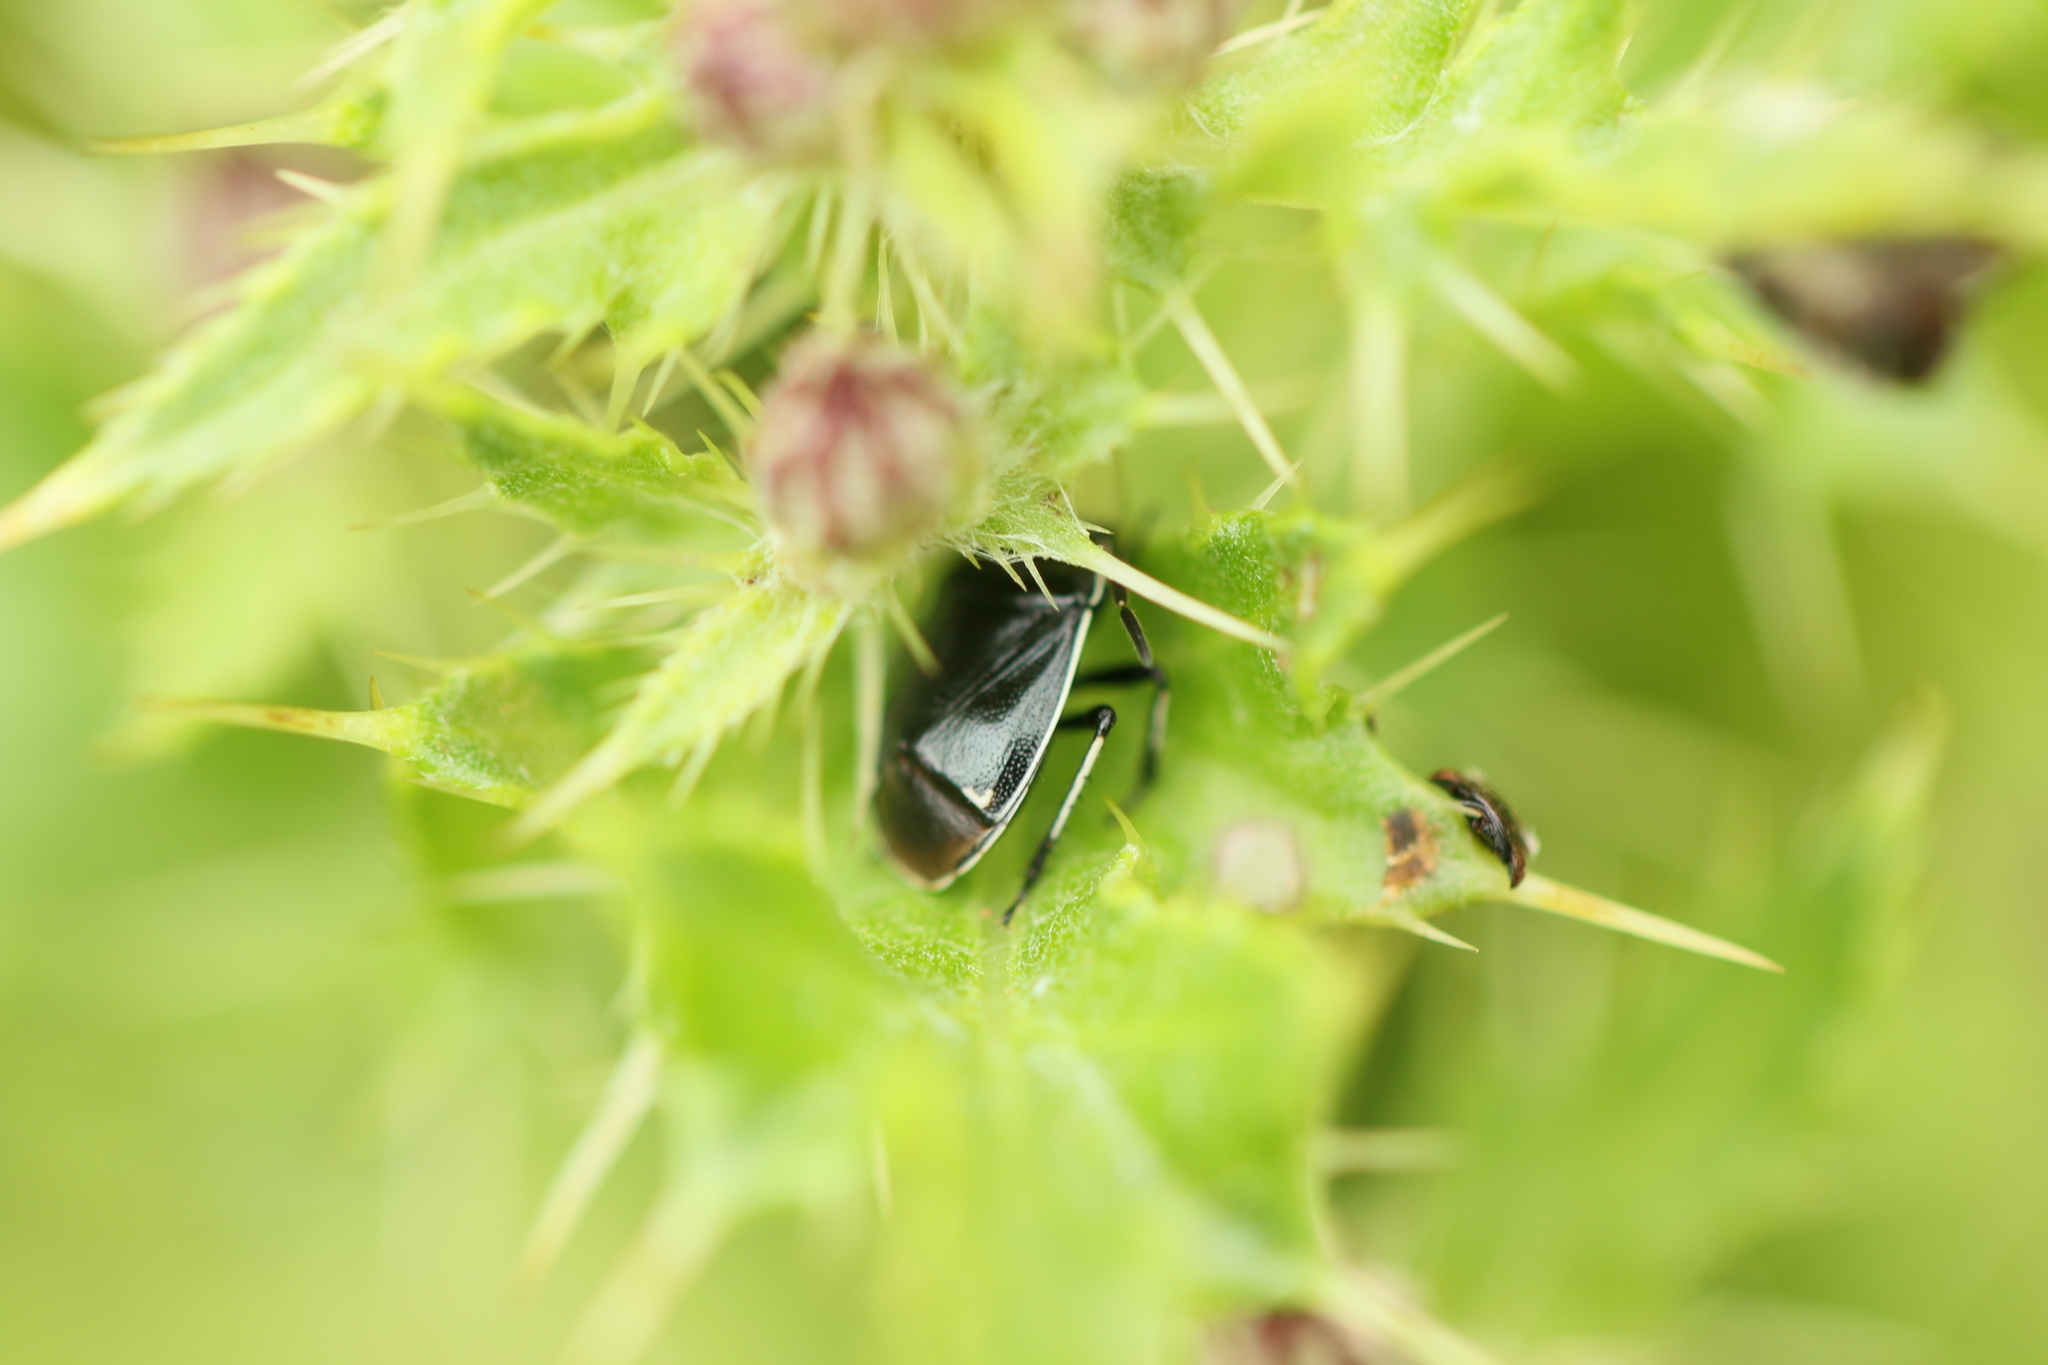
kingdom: Animalia
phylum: Arthropoda
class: Insecta
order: Hemiptera
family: Cydnidae
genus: Sehirus
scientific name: Sehirus cinctus
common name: White-margined burrower bug
